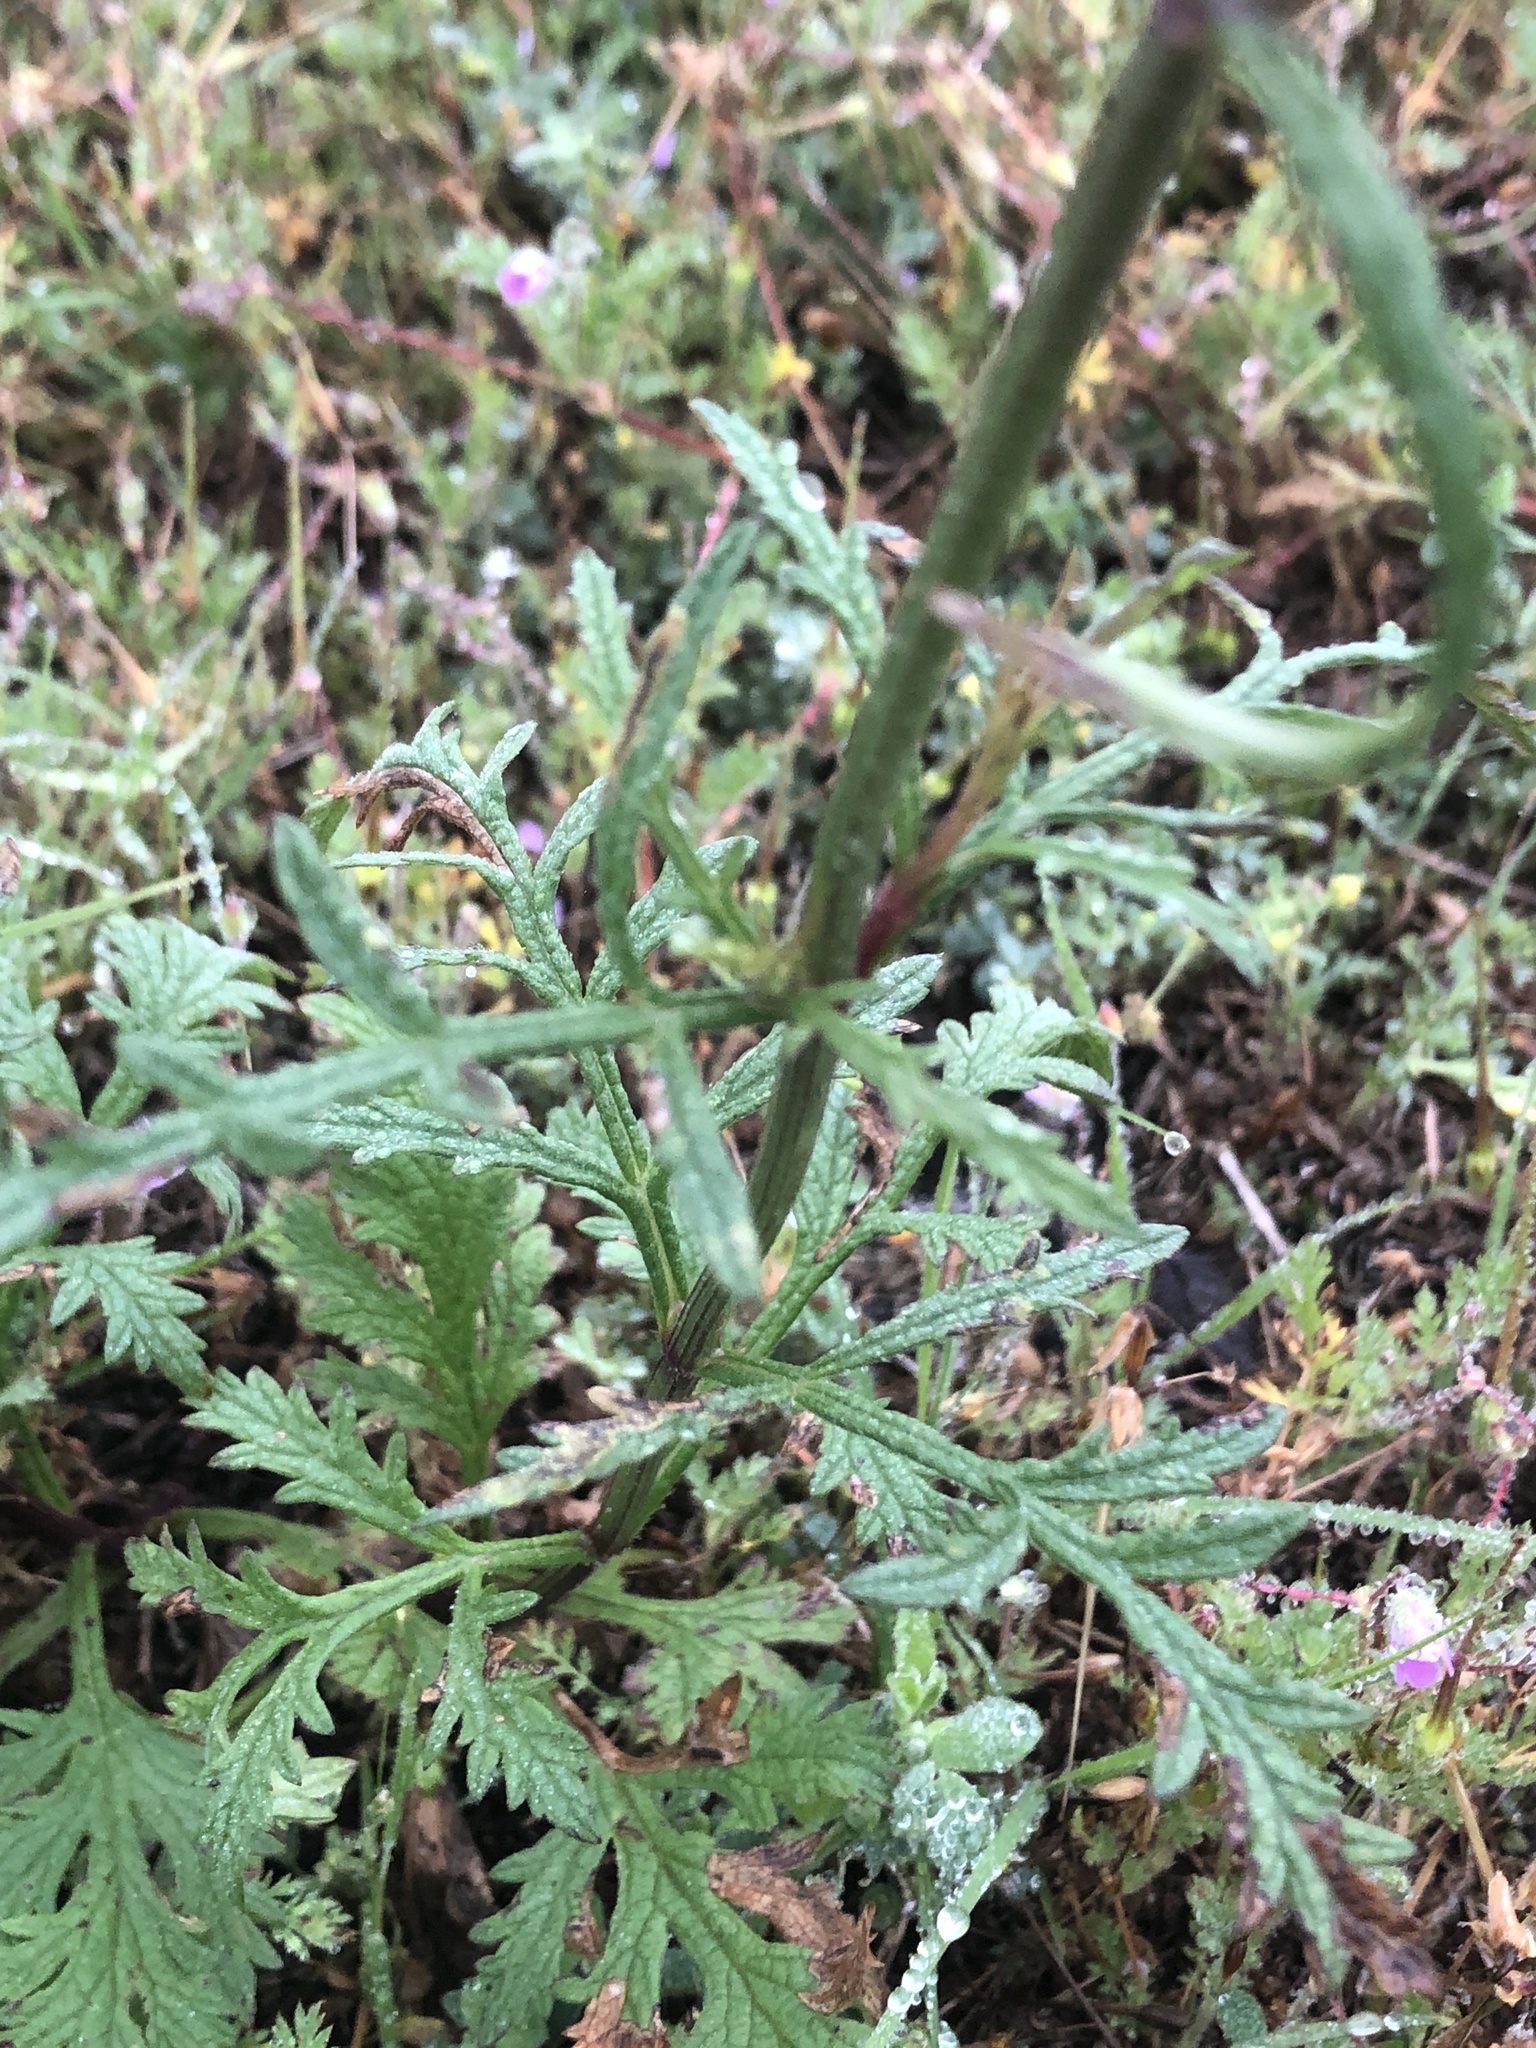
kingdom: Plantae
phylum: Tracheophyta
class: Magnoliopsida
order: Lamiales
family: Verbenaceae
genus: Verbena
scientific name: Verbena halei
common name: Texas vervain
